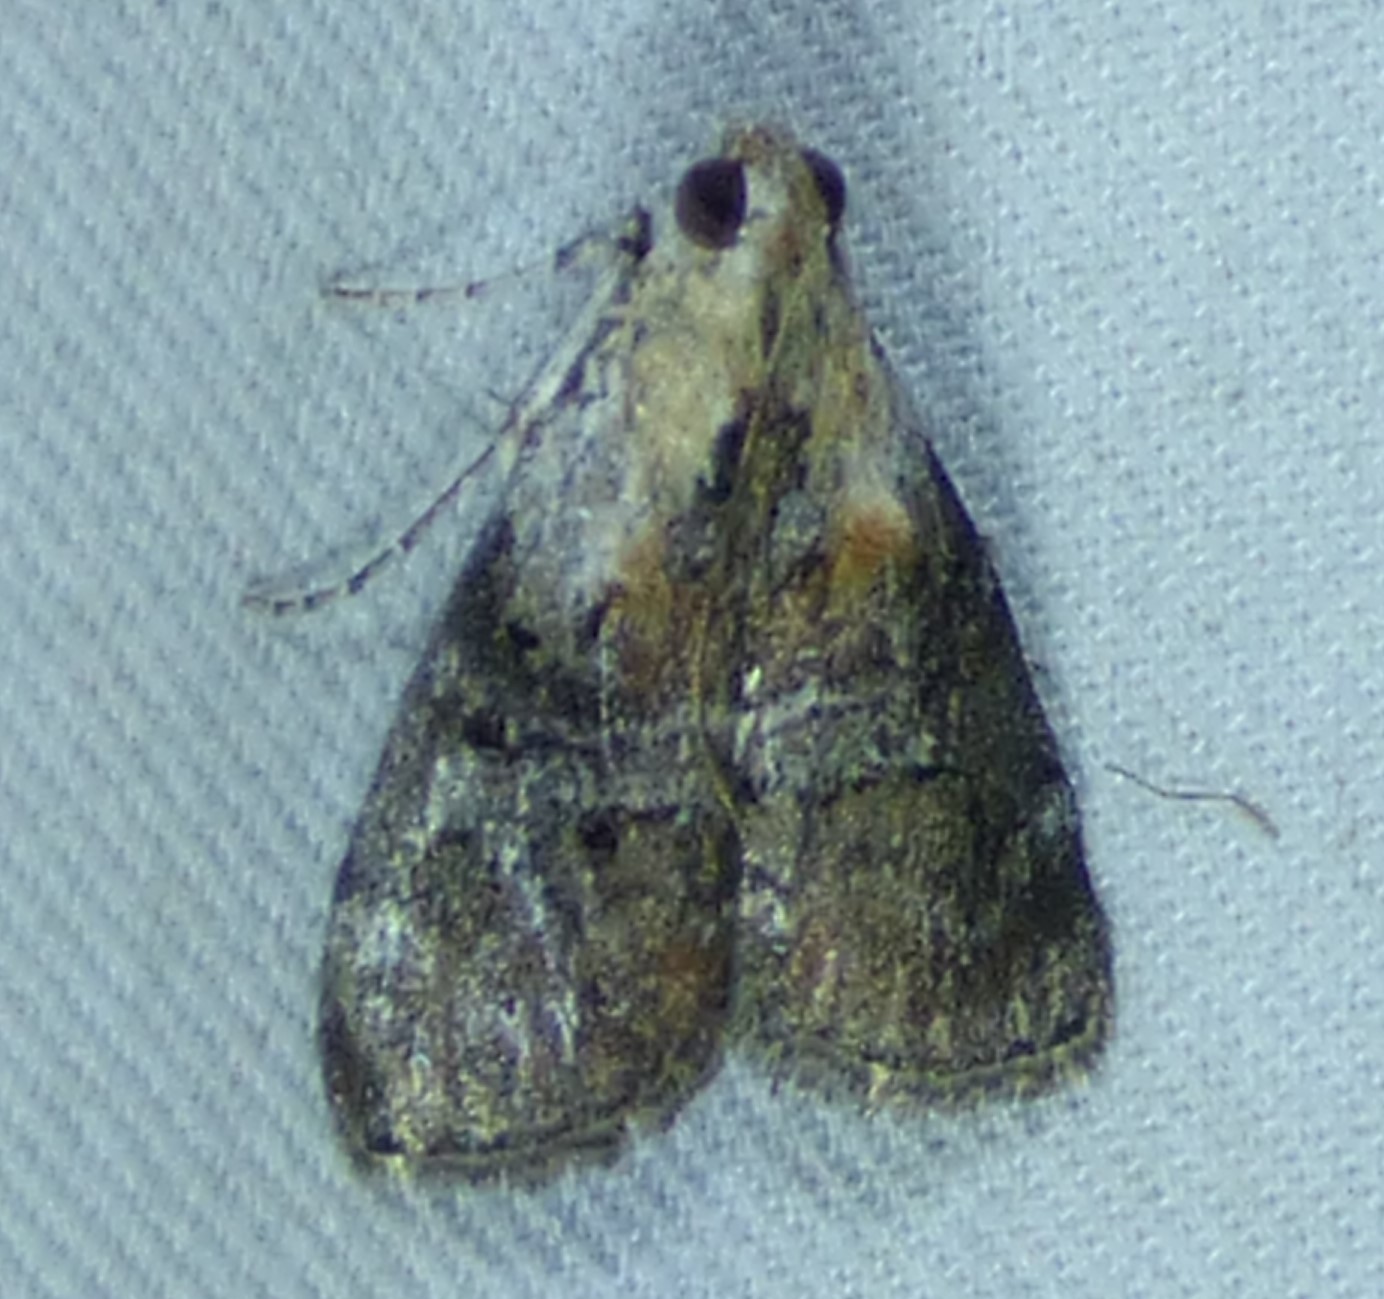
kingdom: Animalia
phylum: Arthropoda
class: Insecta
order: Lepidoptera
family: Pyralidae
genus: Pococera
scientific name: Pococera expandens
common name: Striped oak webworm moth
